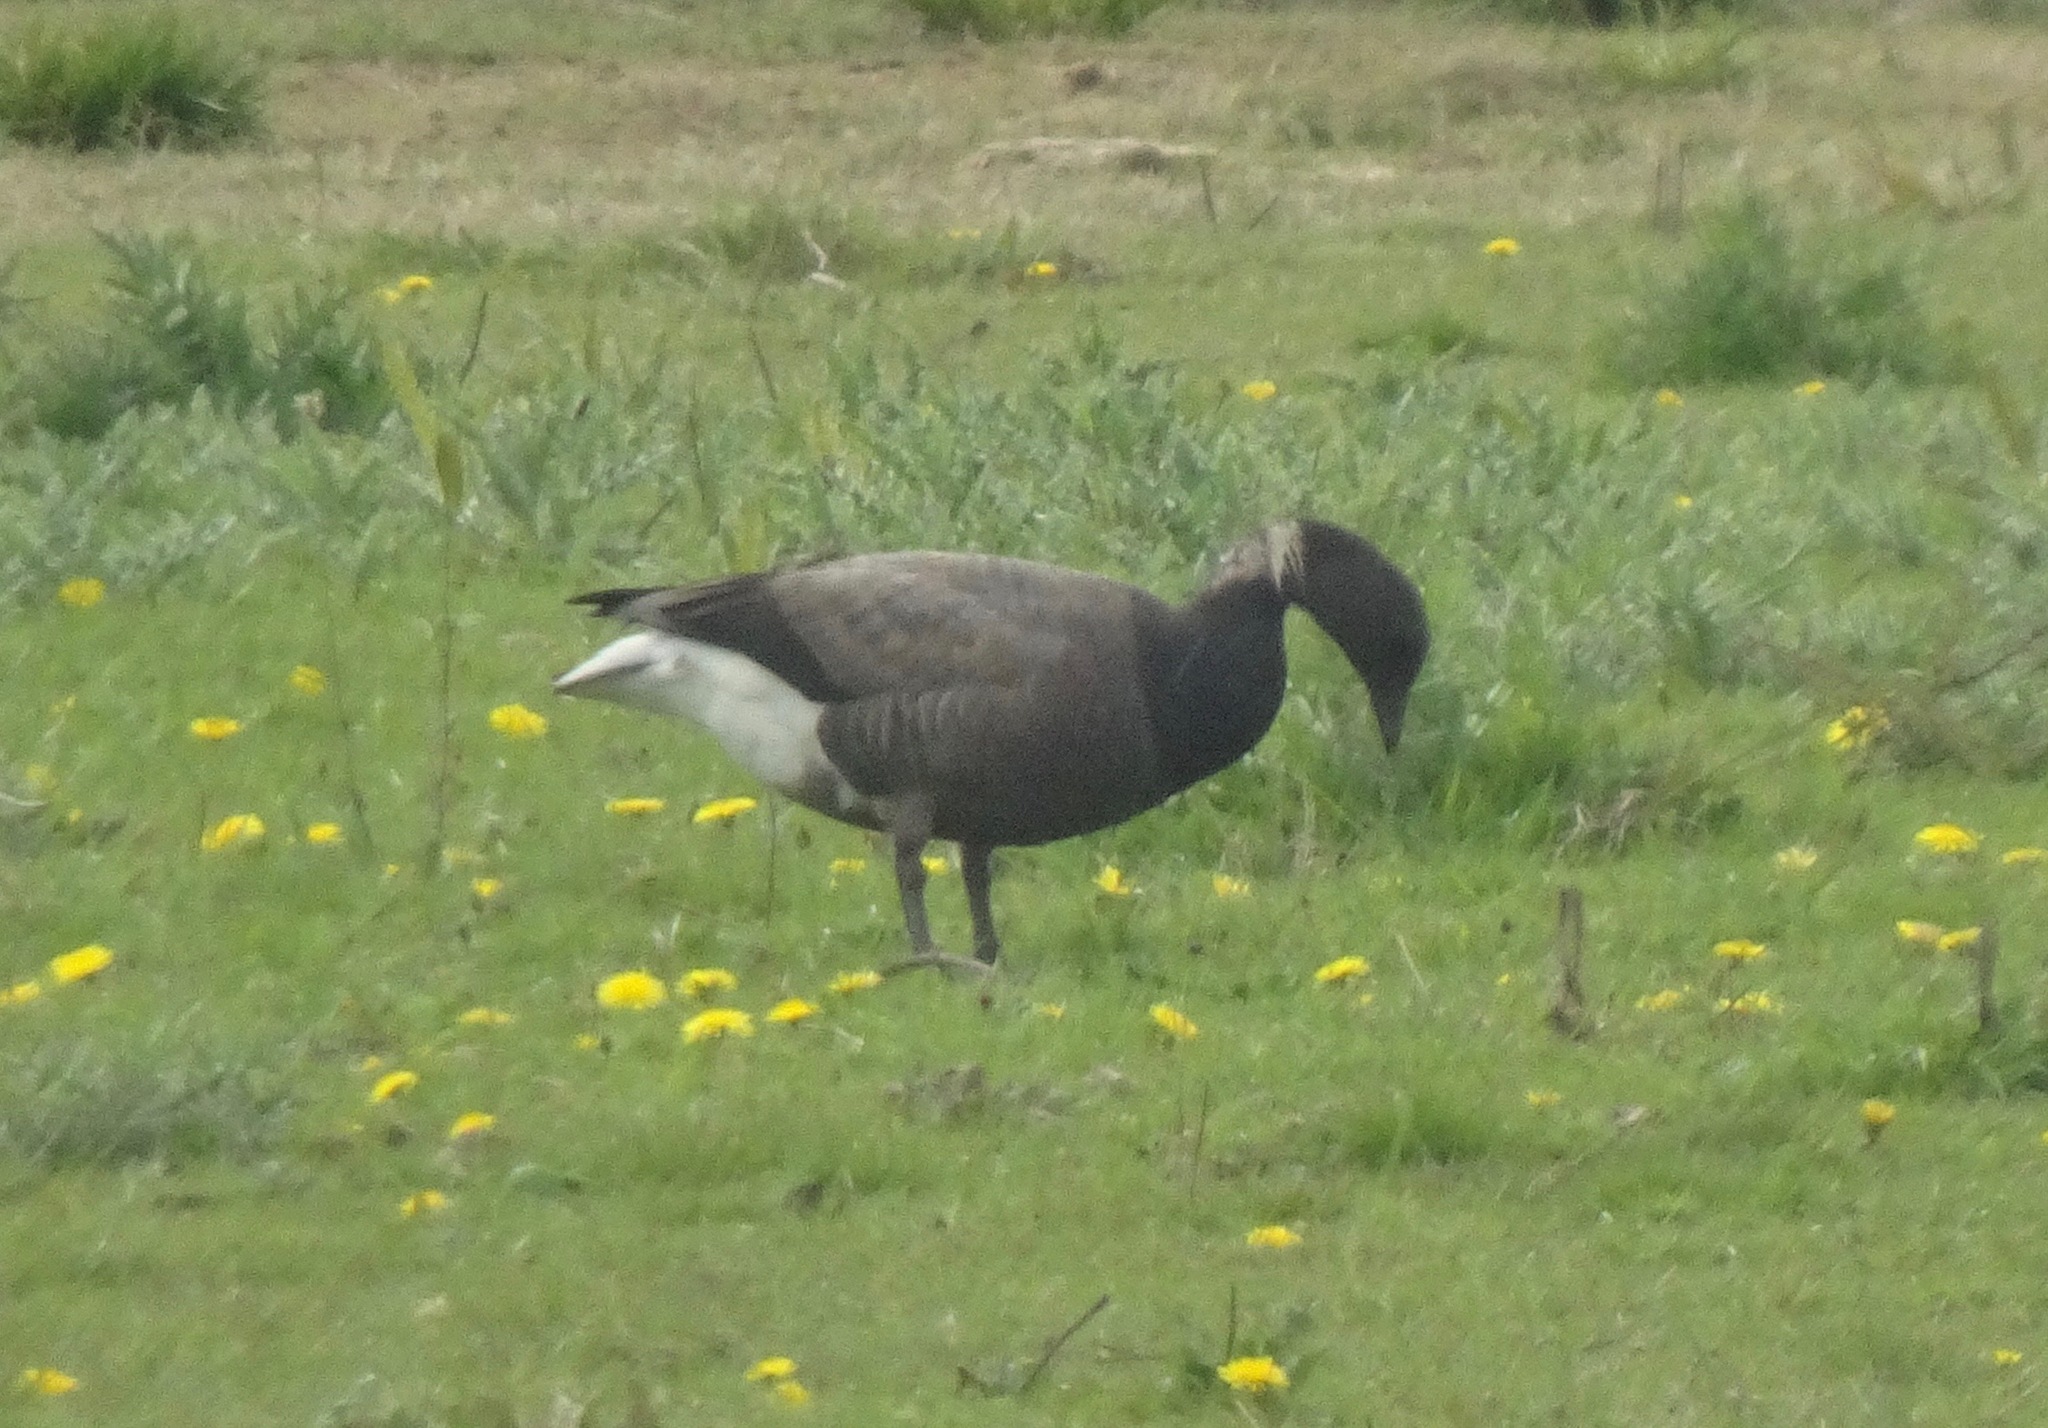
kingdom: Animalia
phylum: Chordata
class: Aves
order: Anseriformes
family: Anatidae
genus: Branta
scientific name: Branta bernicla
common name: Brant goose
